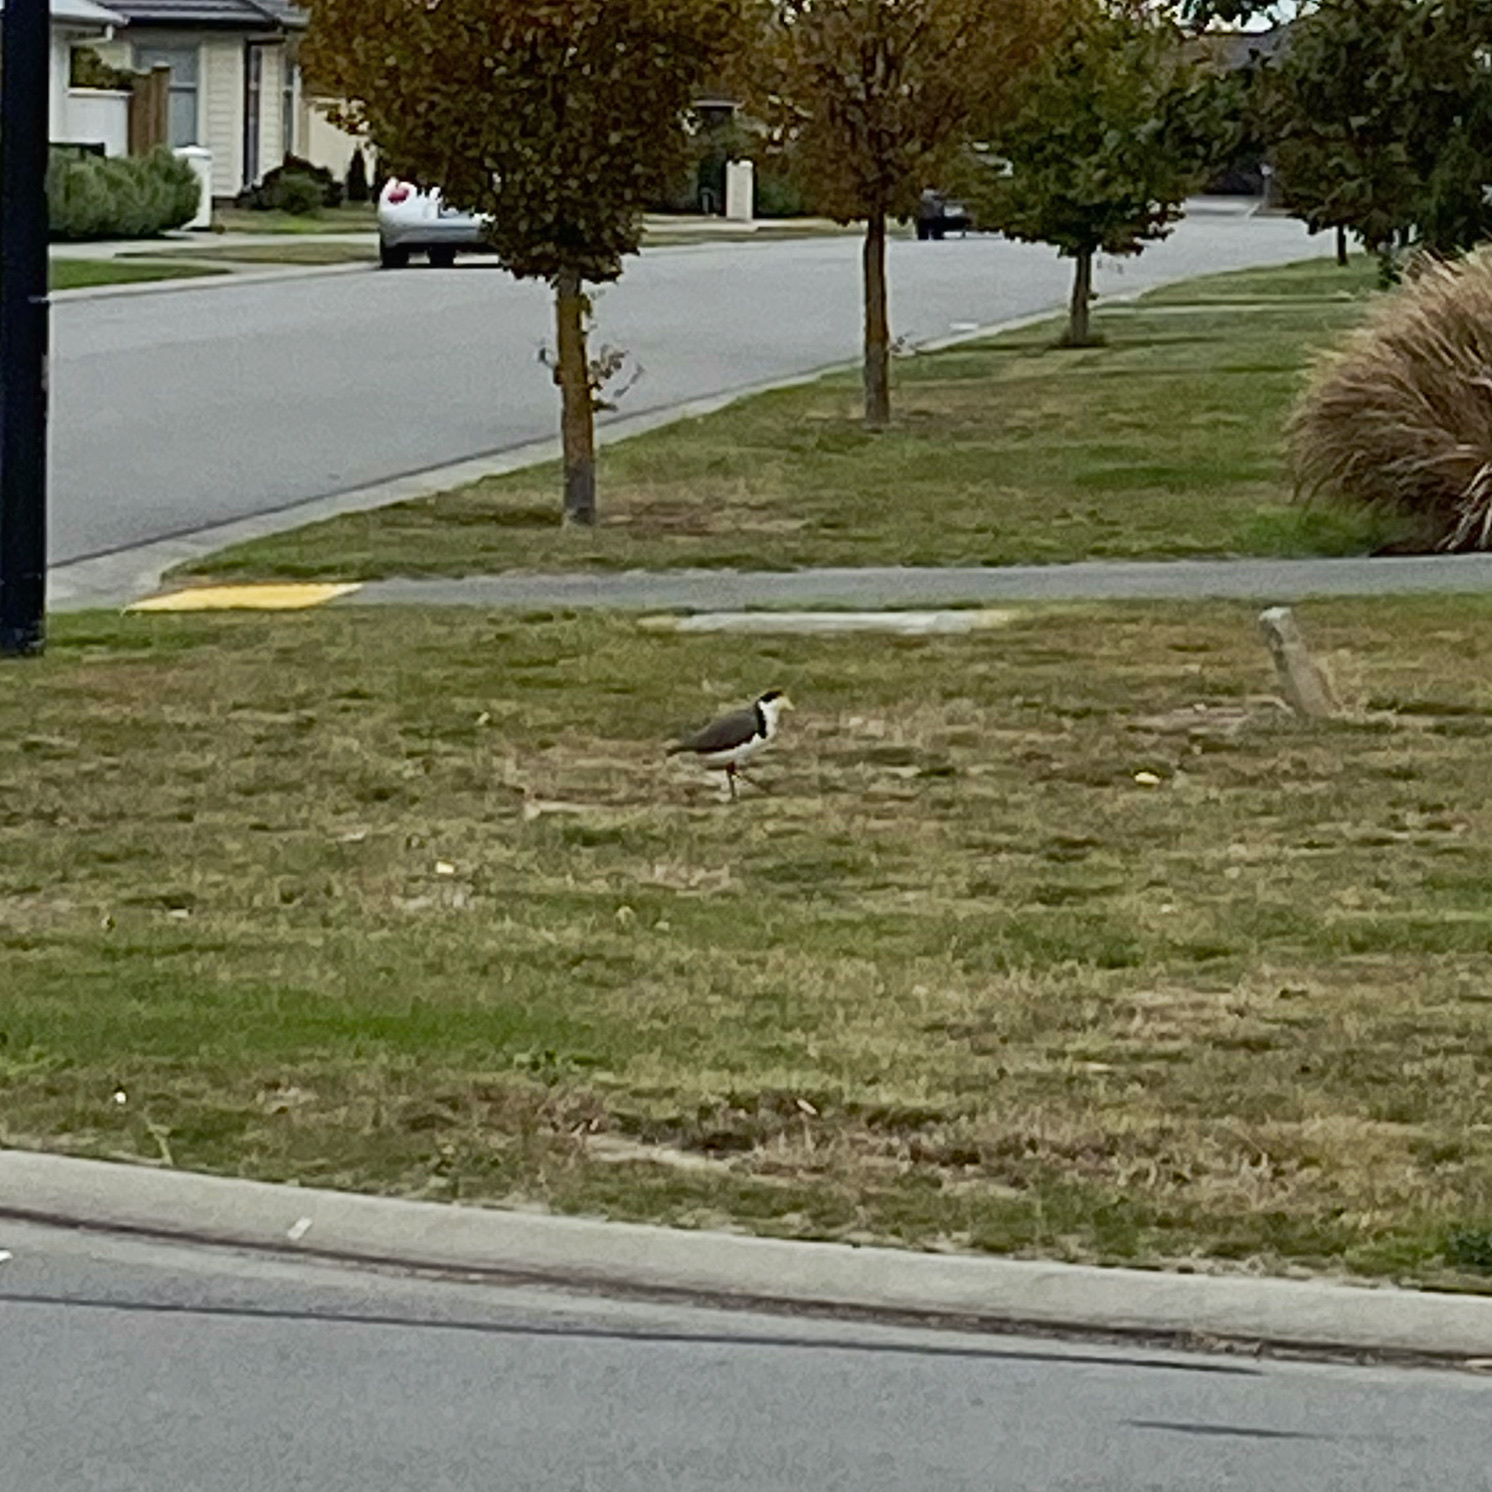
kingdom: Animalia
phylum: Chordata
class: Aves
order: Charadriiformes
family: Charadriidae
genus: Vanellus
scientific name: Vanellus miles
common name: Masked lapwing
